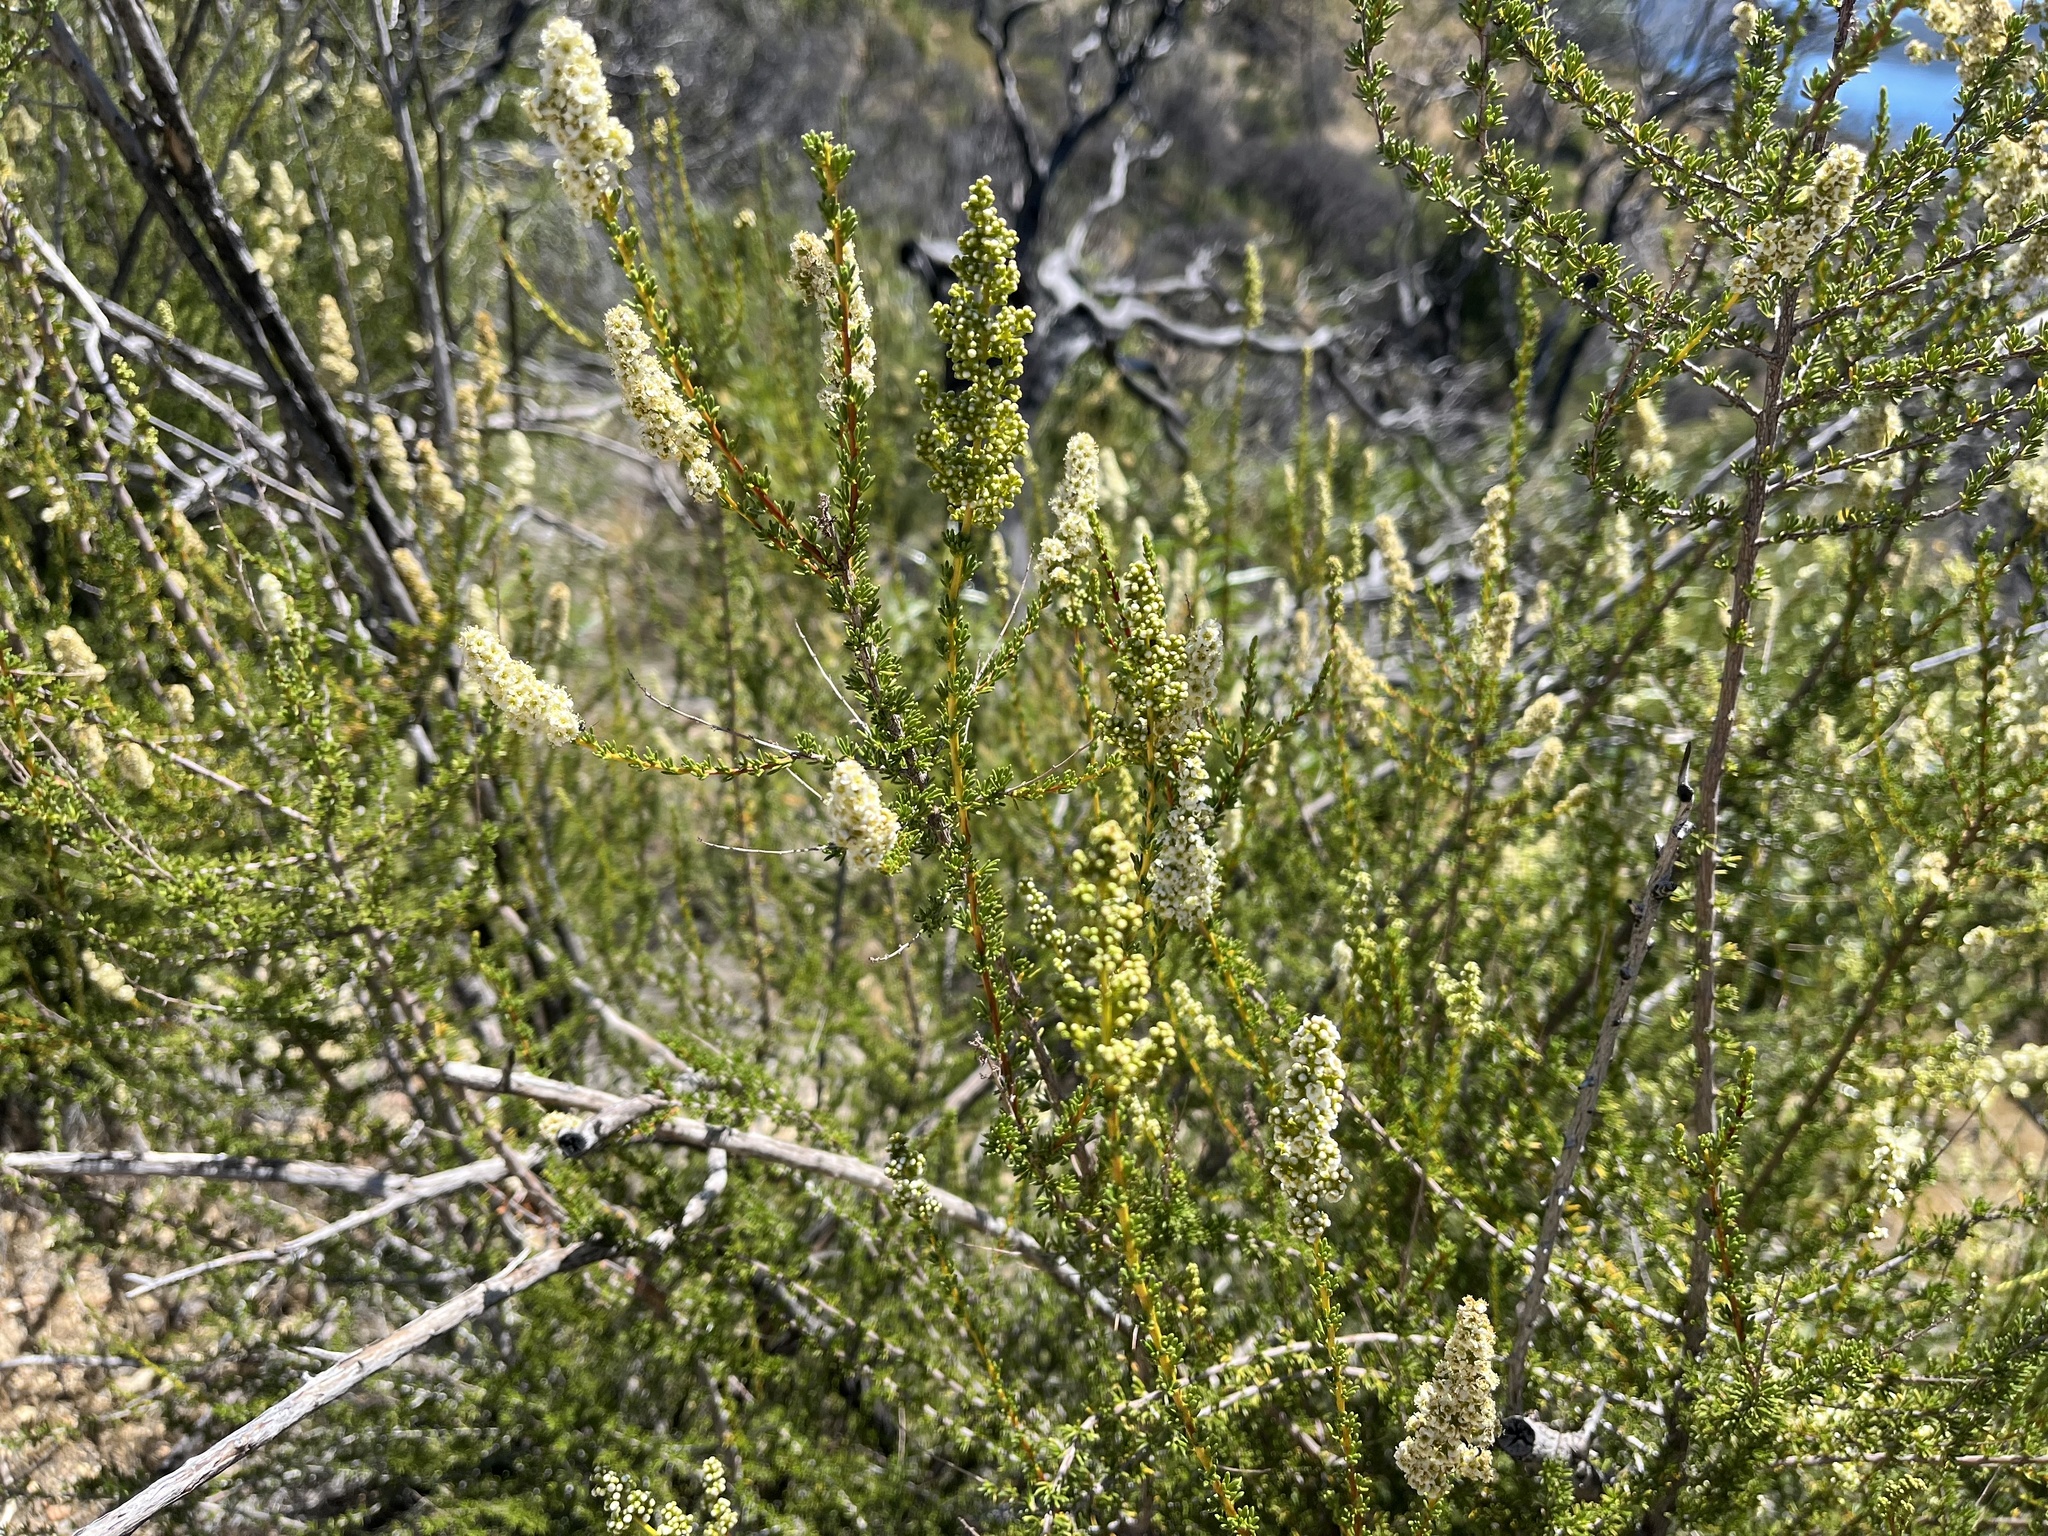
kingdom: Plantae
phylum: Tracheophyta
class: Magnoliopsida
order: Rosales
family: Rosaceae
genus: Adenostoma
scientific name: Adenostoma fasciculatum
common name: Chamise
